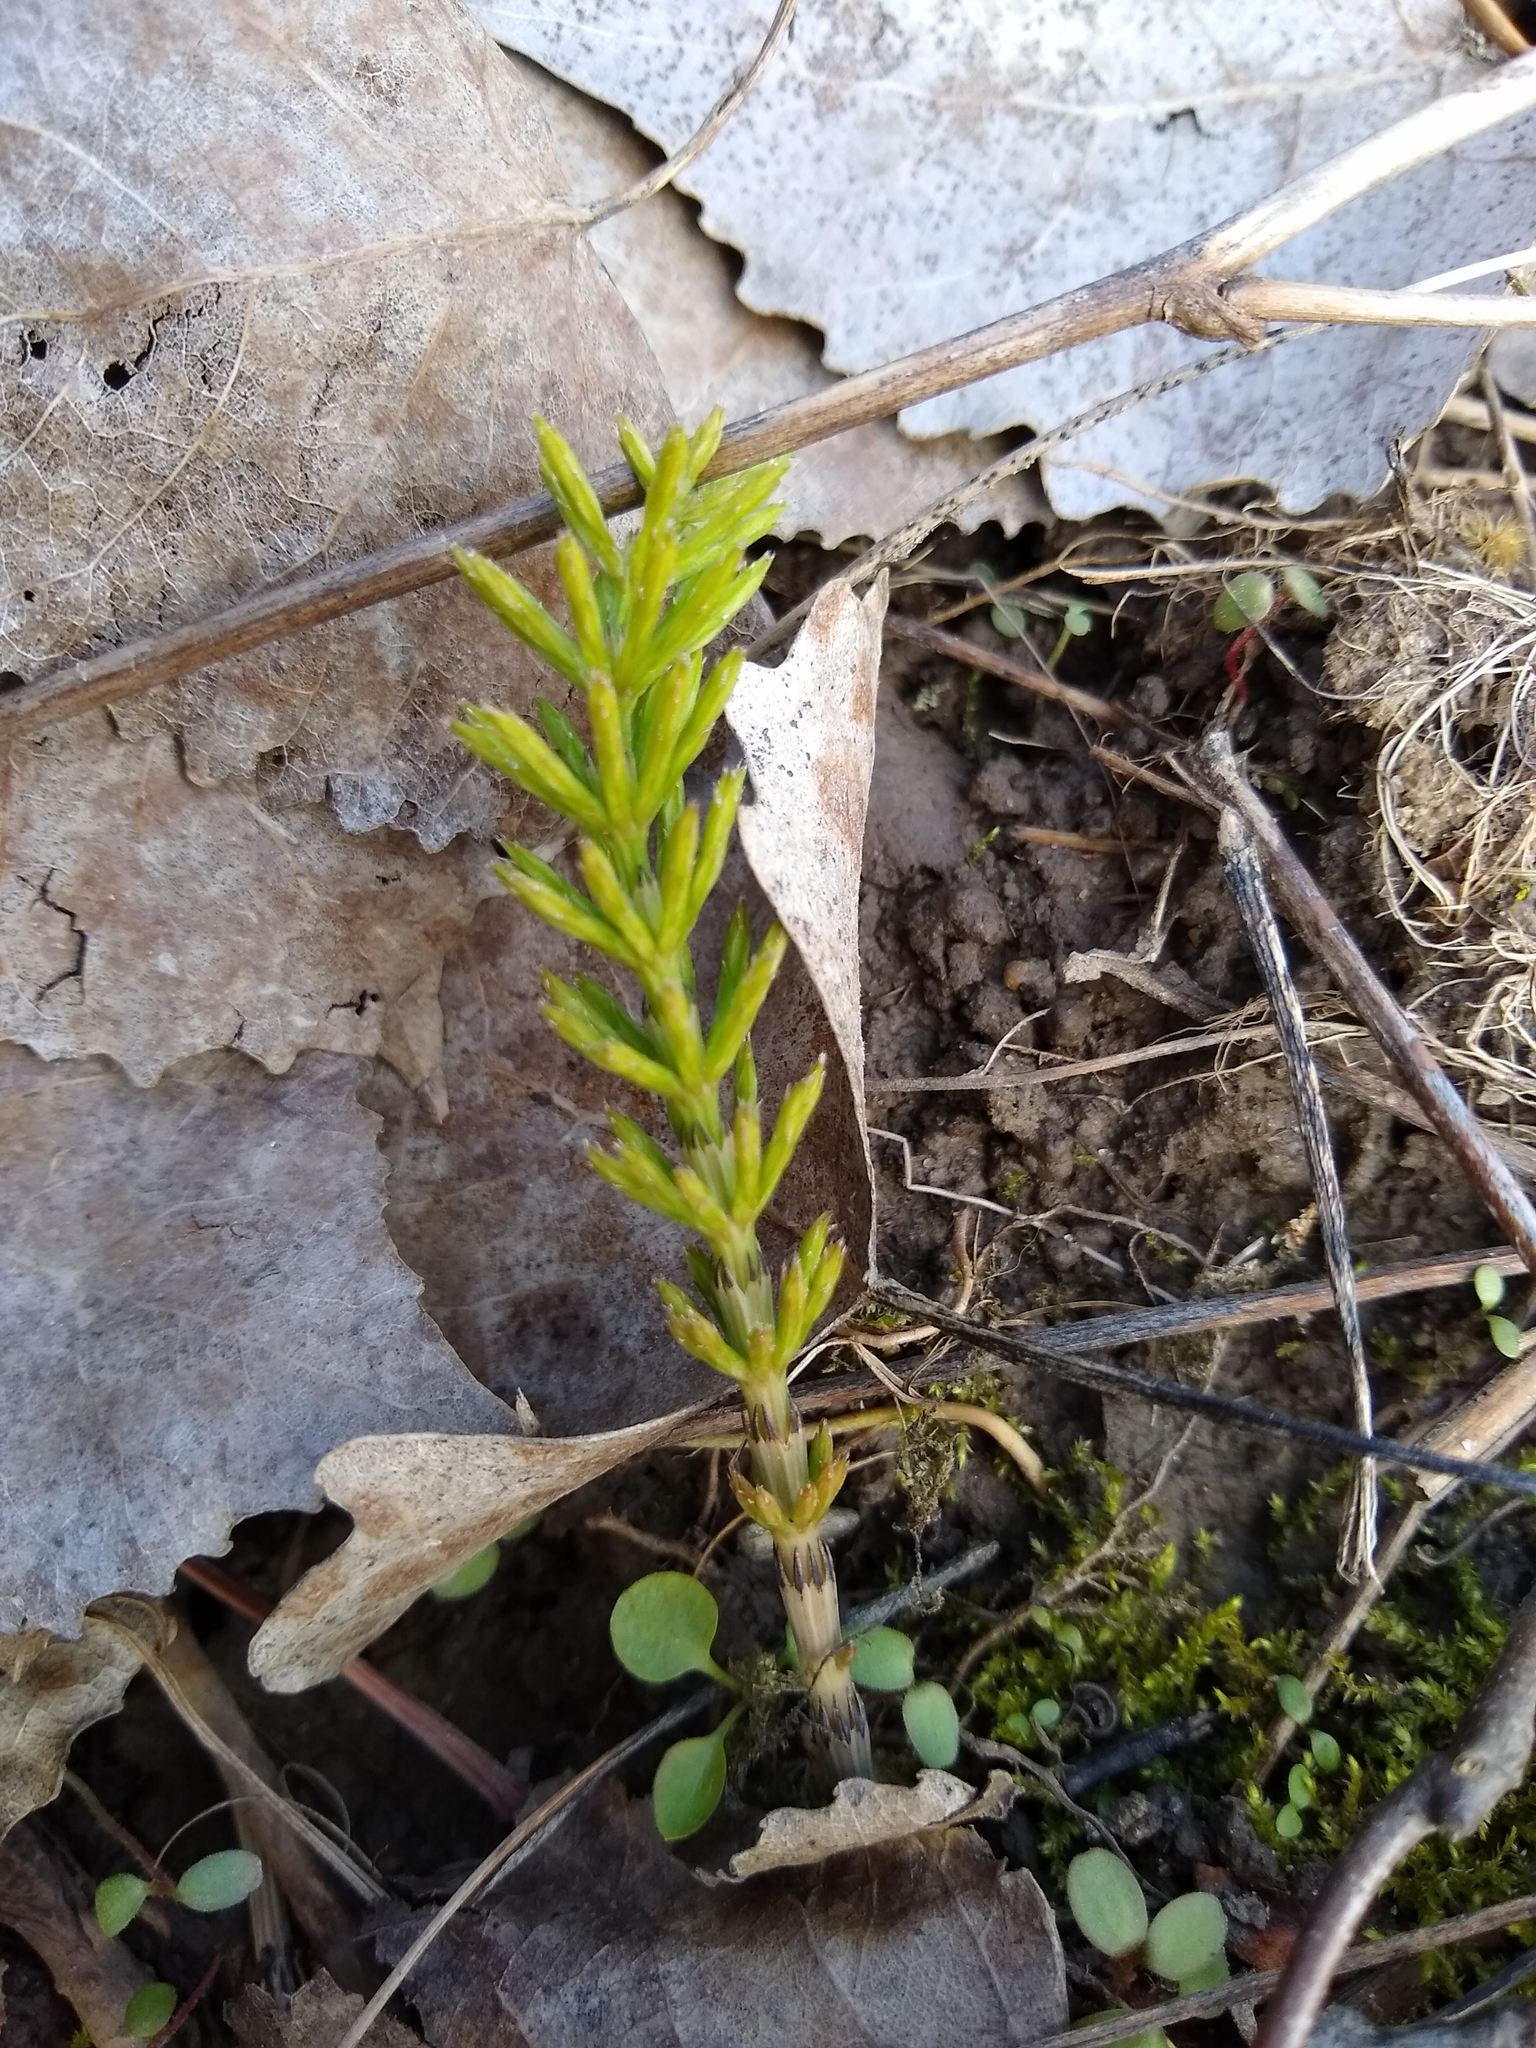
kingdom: Plantae
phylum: Tracheophyta
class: Polypodiopsida
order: Equisetales
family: Equisetaceae
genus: Equisetum
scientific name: Equisetum
